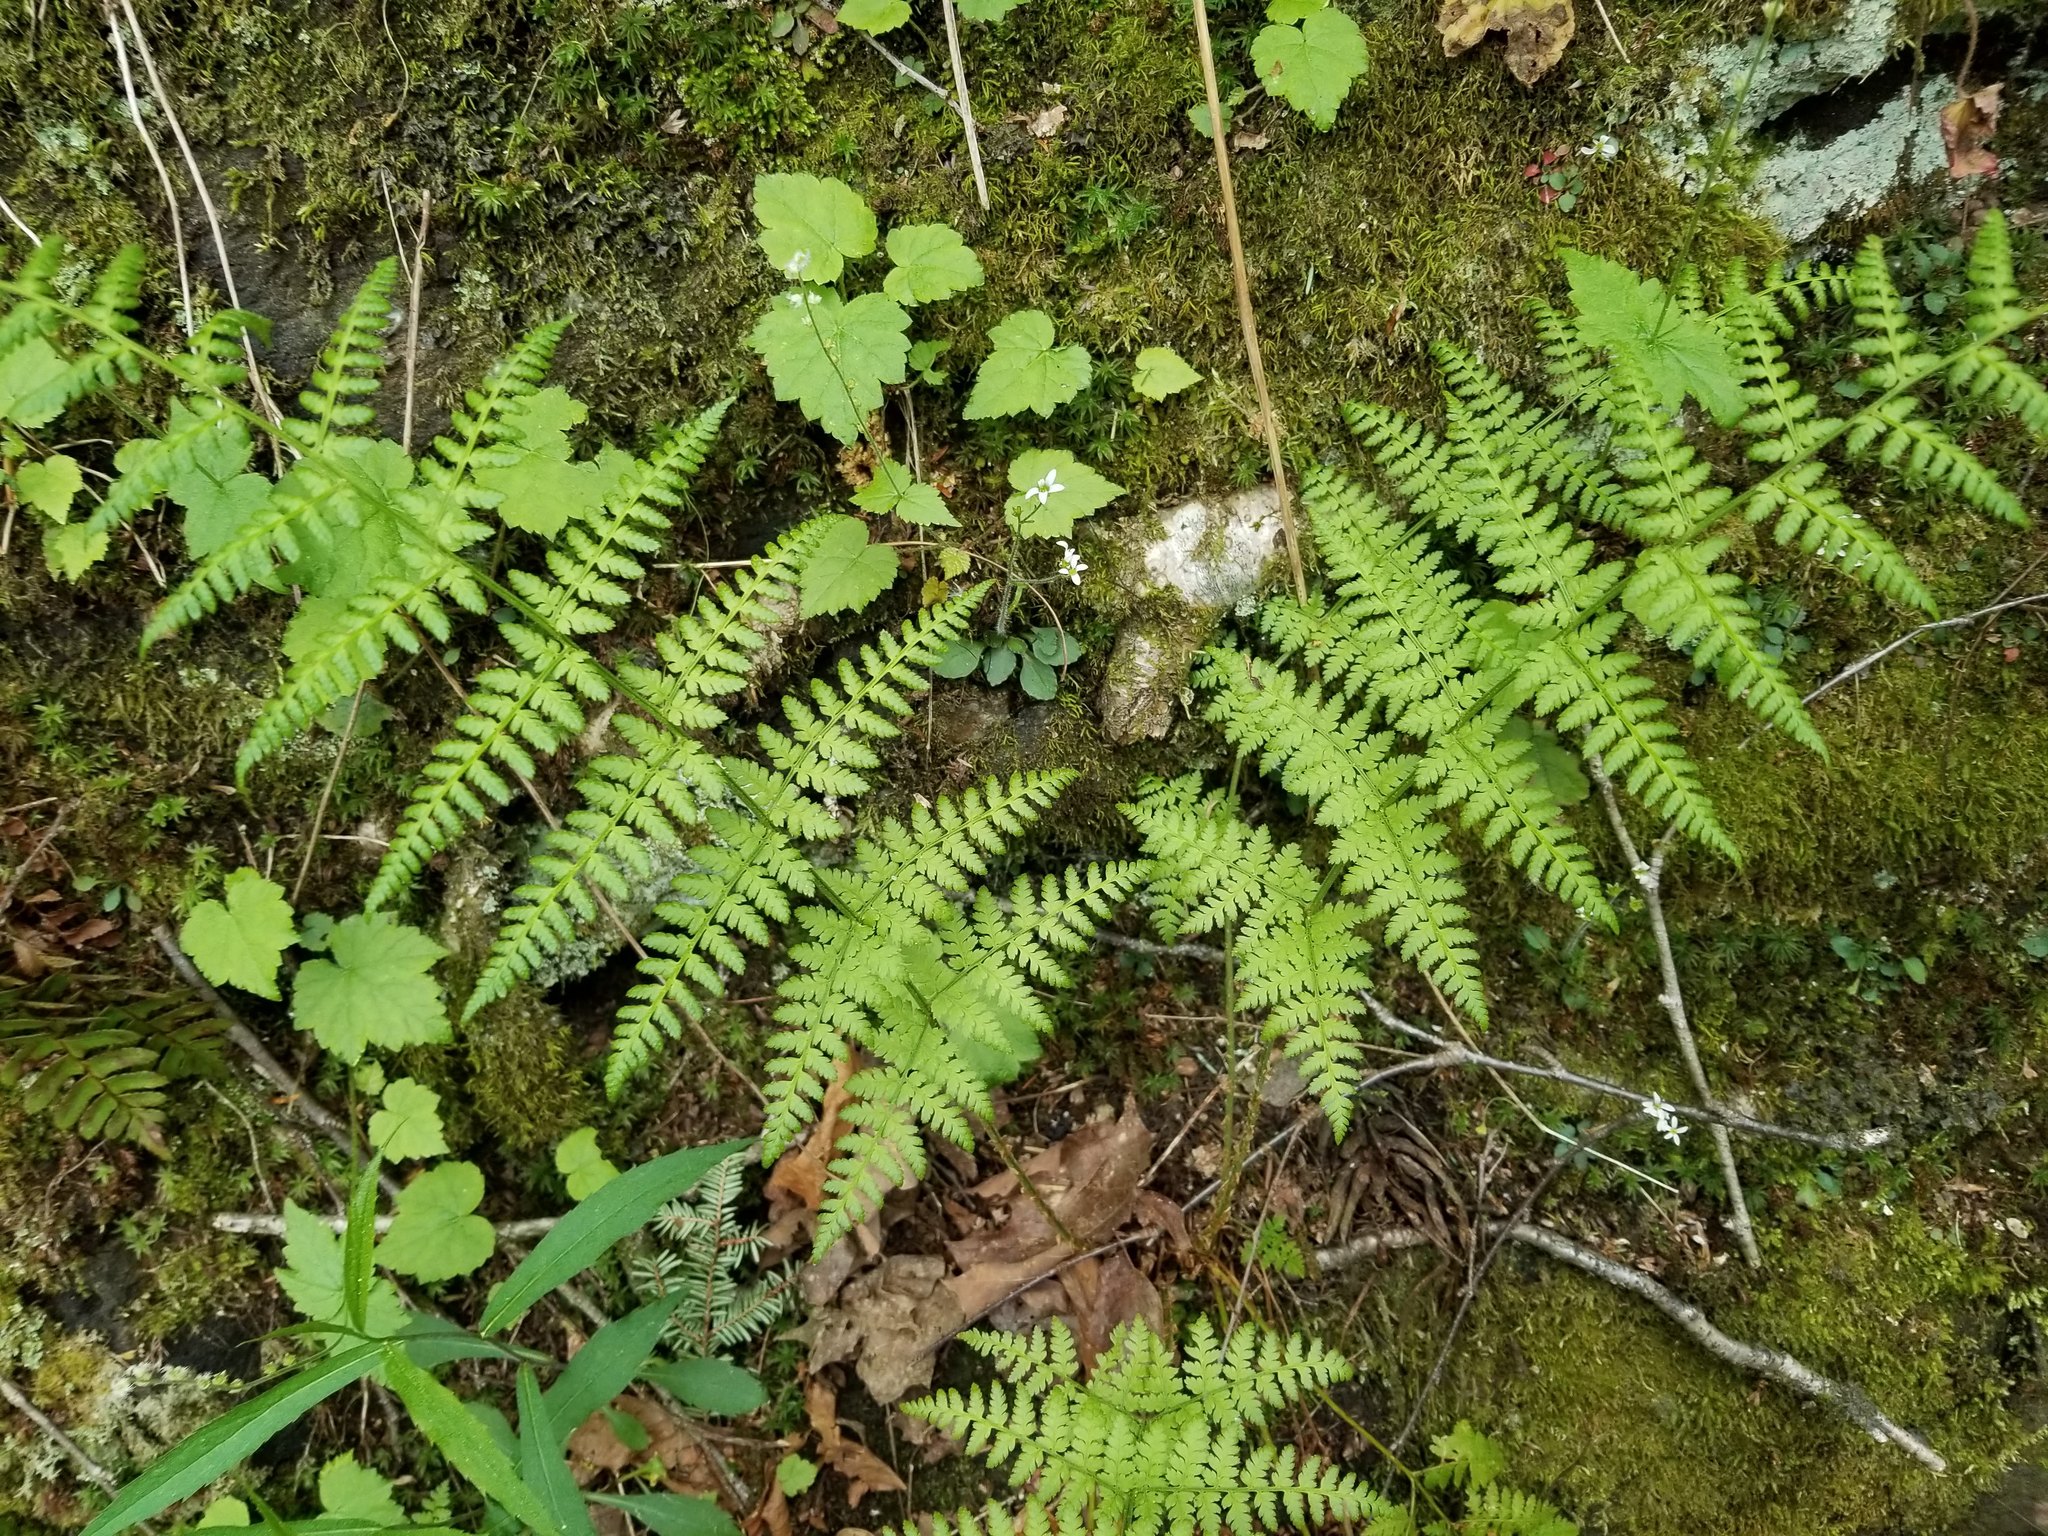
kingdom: Plantae
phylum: Tracheophyta
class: Polypodiopsida
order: Polypodiales
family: Dryopteridaceae
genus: Dryopteris
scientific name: Dryopteris intermedia
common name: Evergreen wood fern
